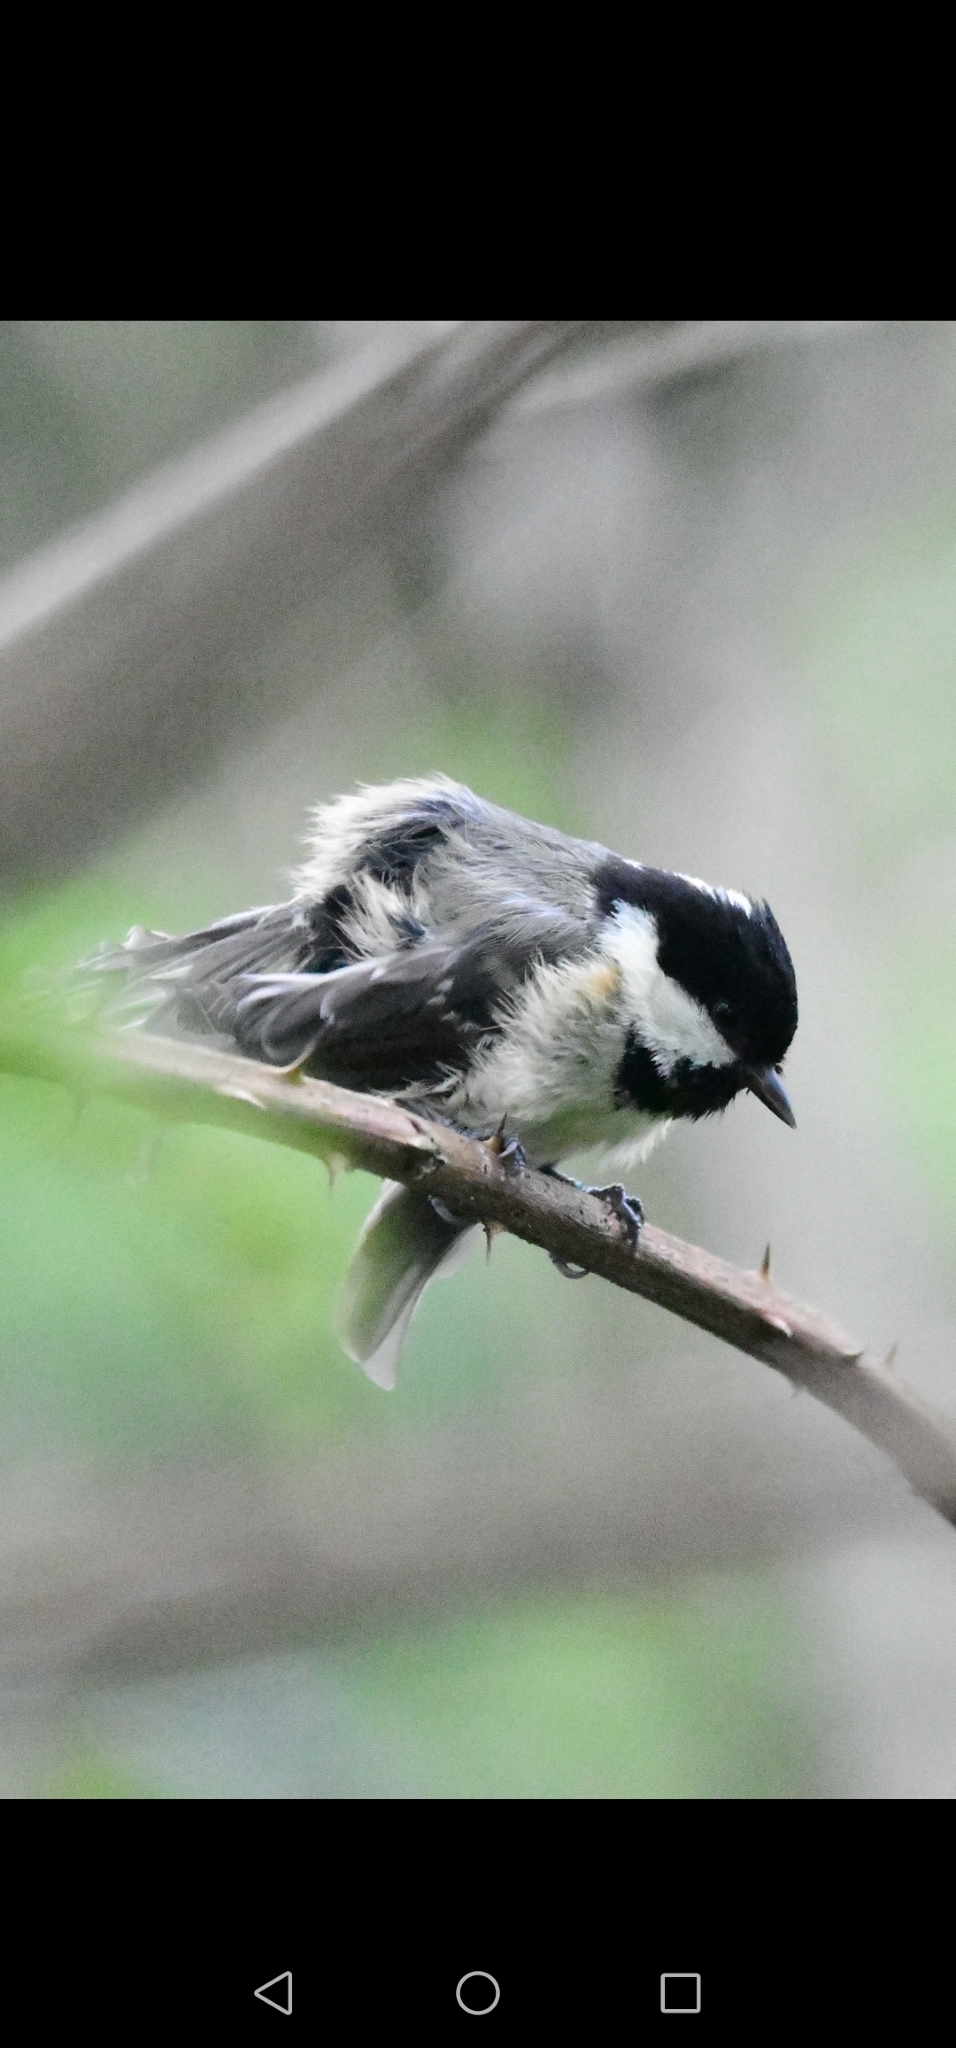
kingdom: Animalia
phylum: Chordata
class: Aves
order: Passeriformes
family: Paridae
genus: Periparus
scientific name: Periparus ater
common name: Coal tit
